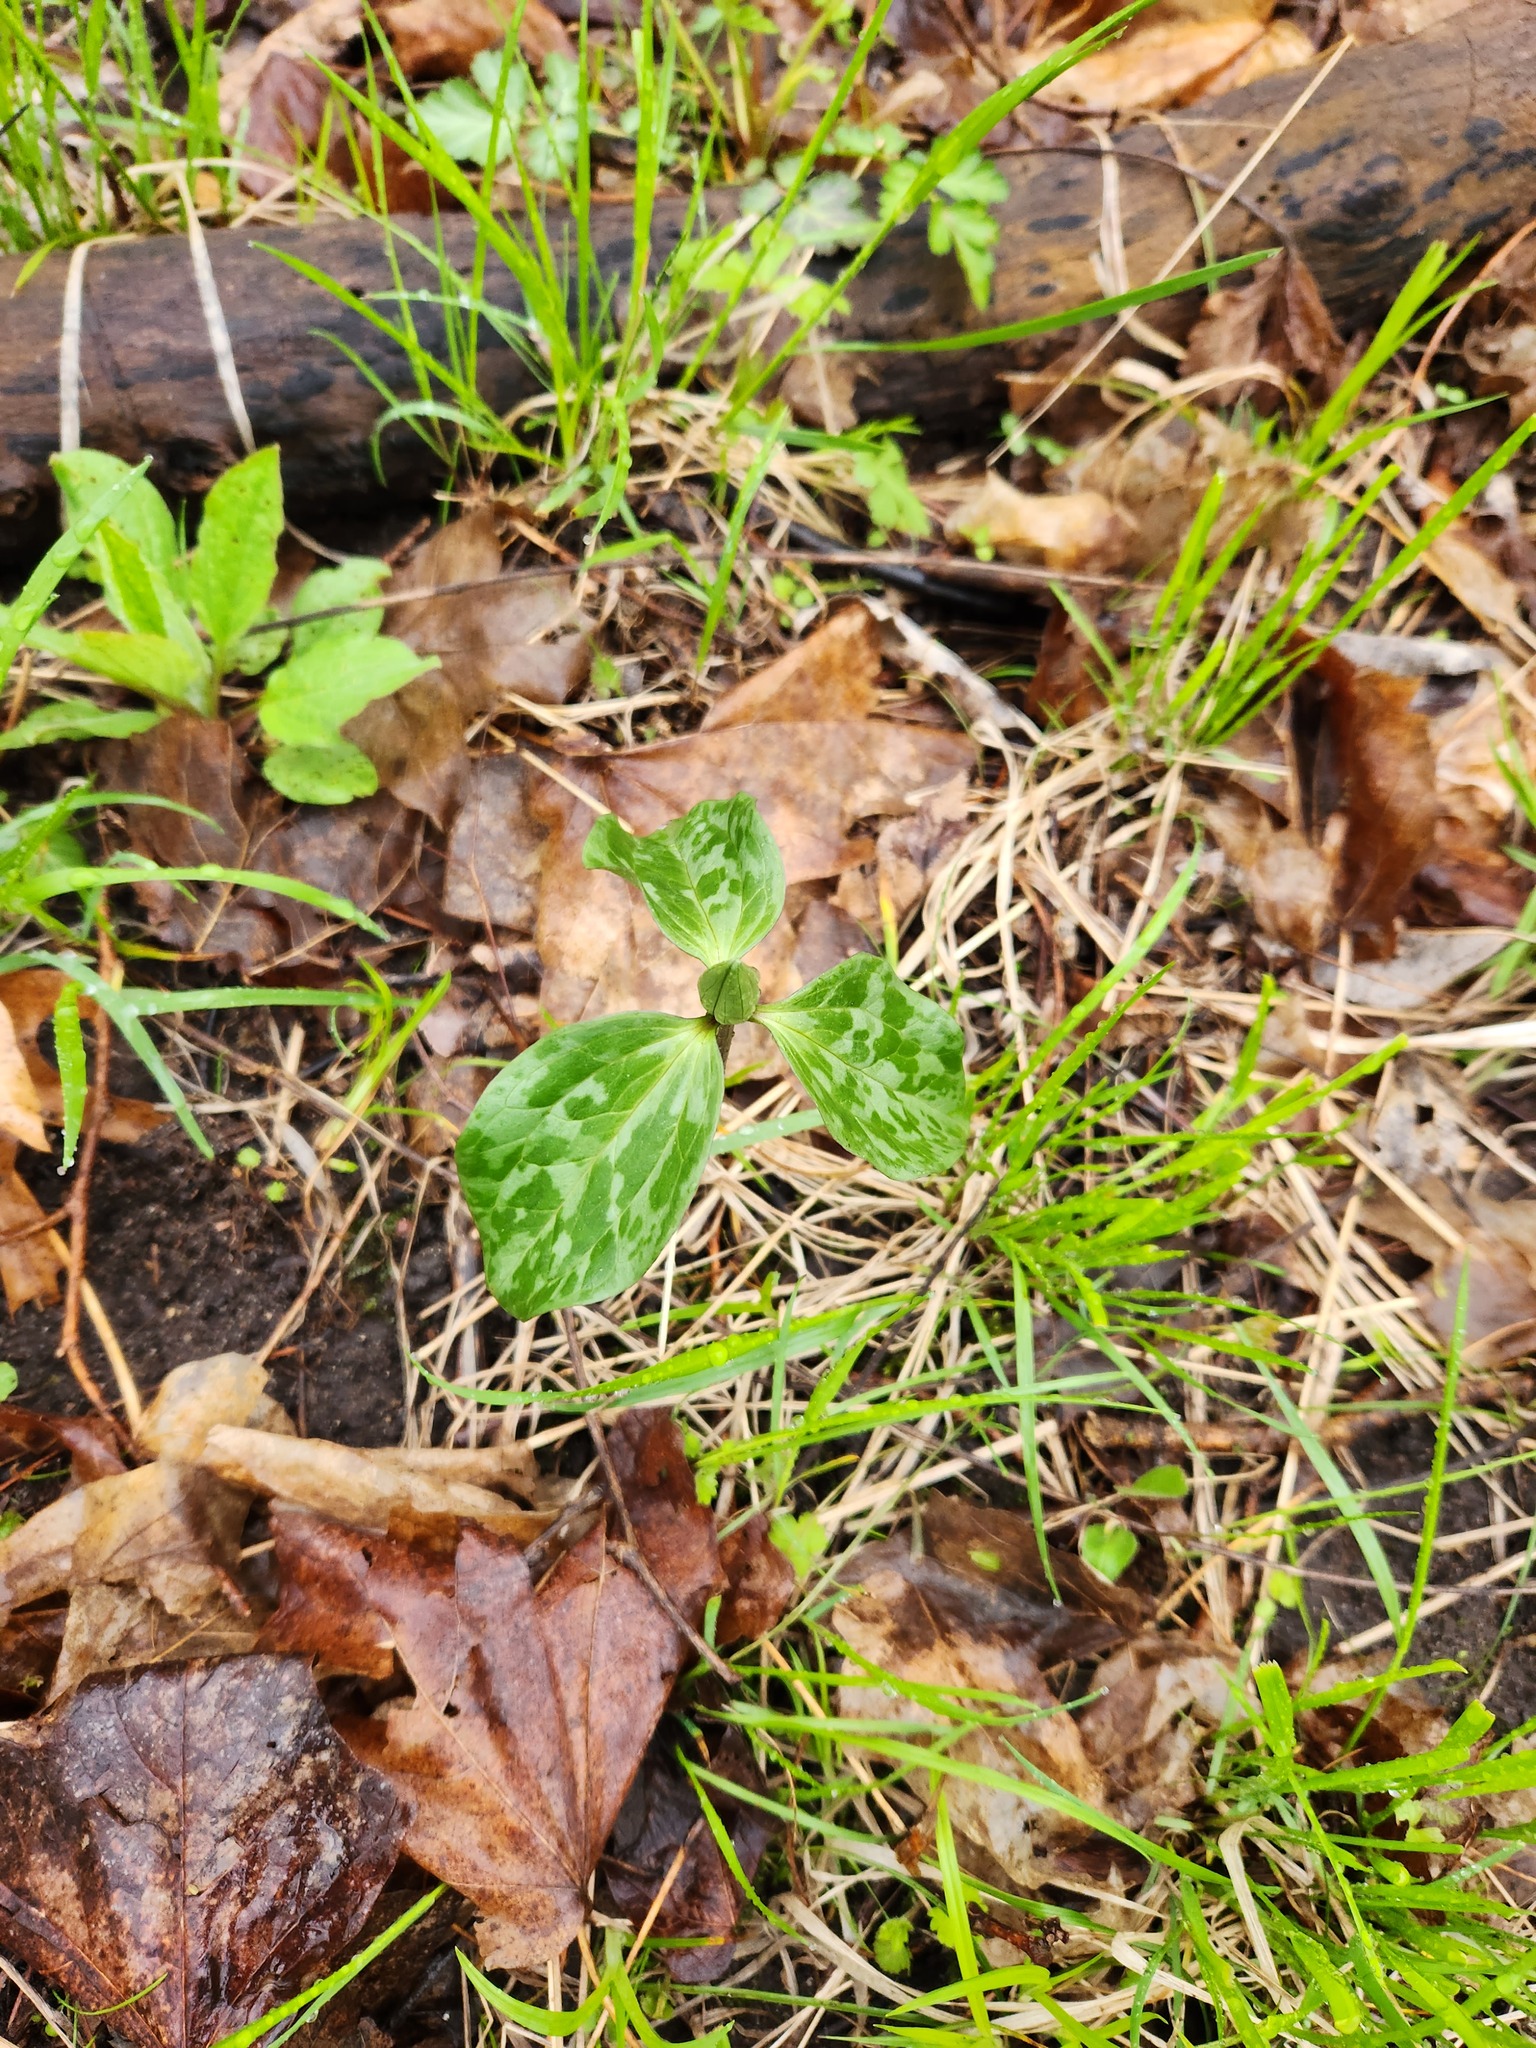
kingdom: Plantae
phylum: Tracheophyta
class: Liliopsida
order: Liliales
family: Melanthiaceae
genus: Trillium
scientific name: Trillium recurvatum
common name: Bloody butcher
